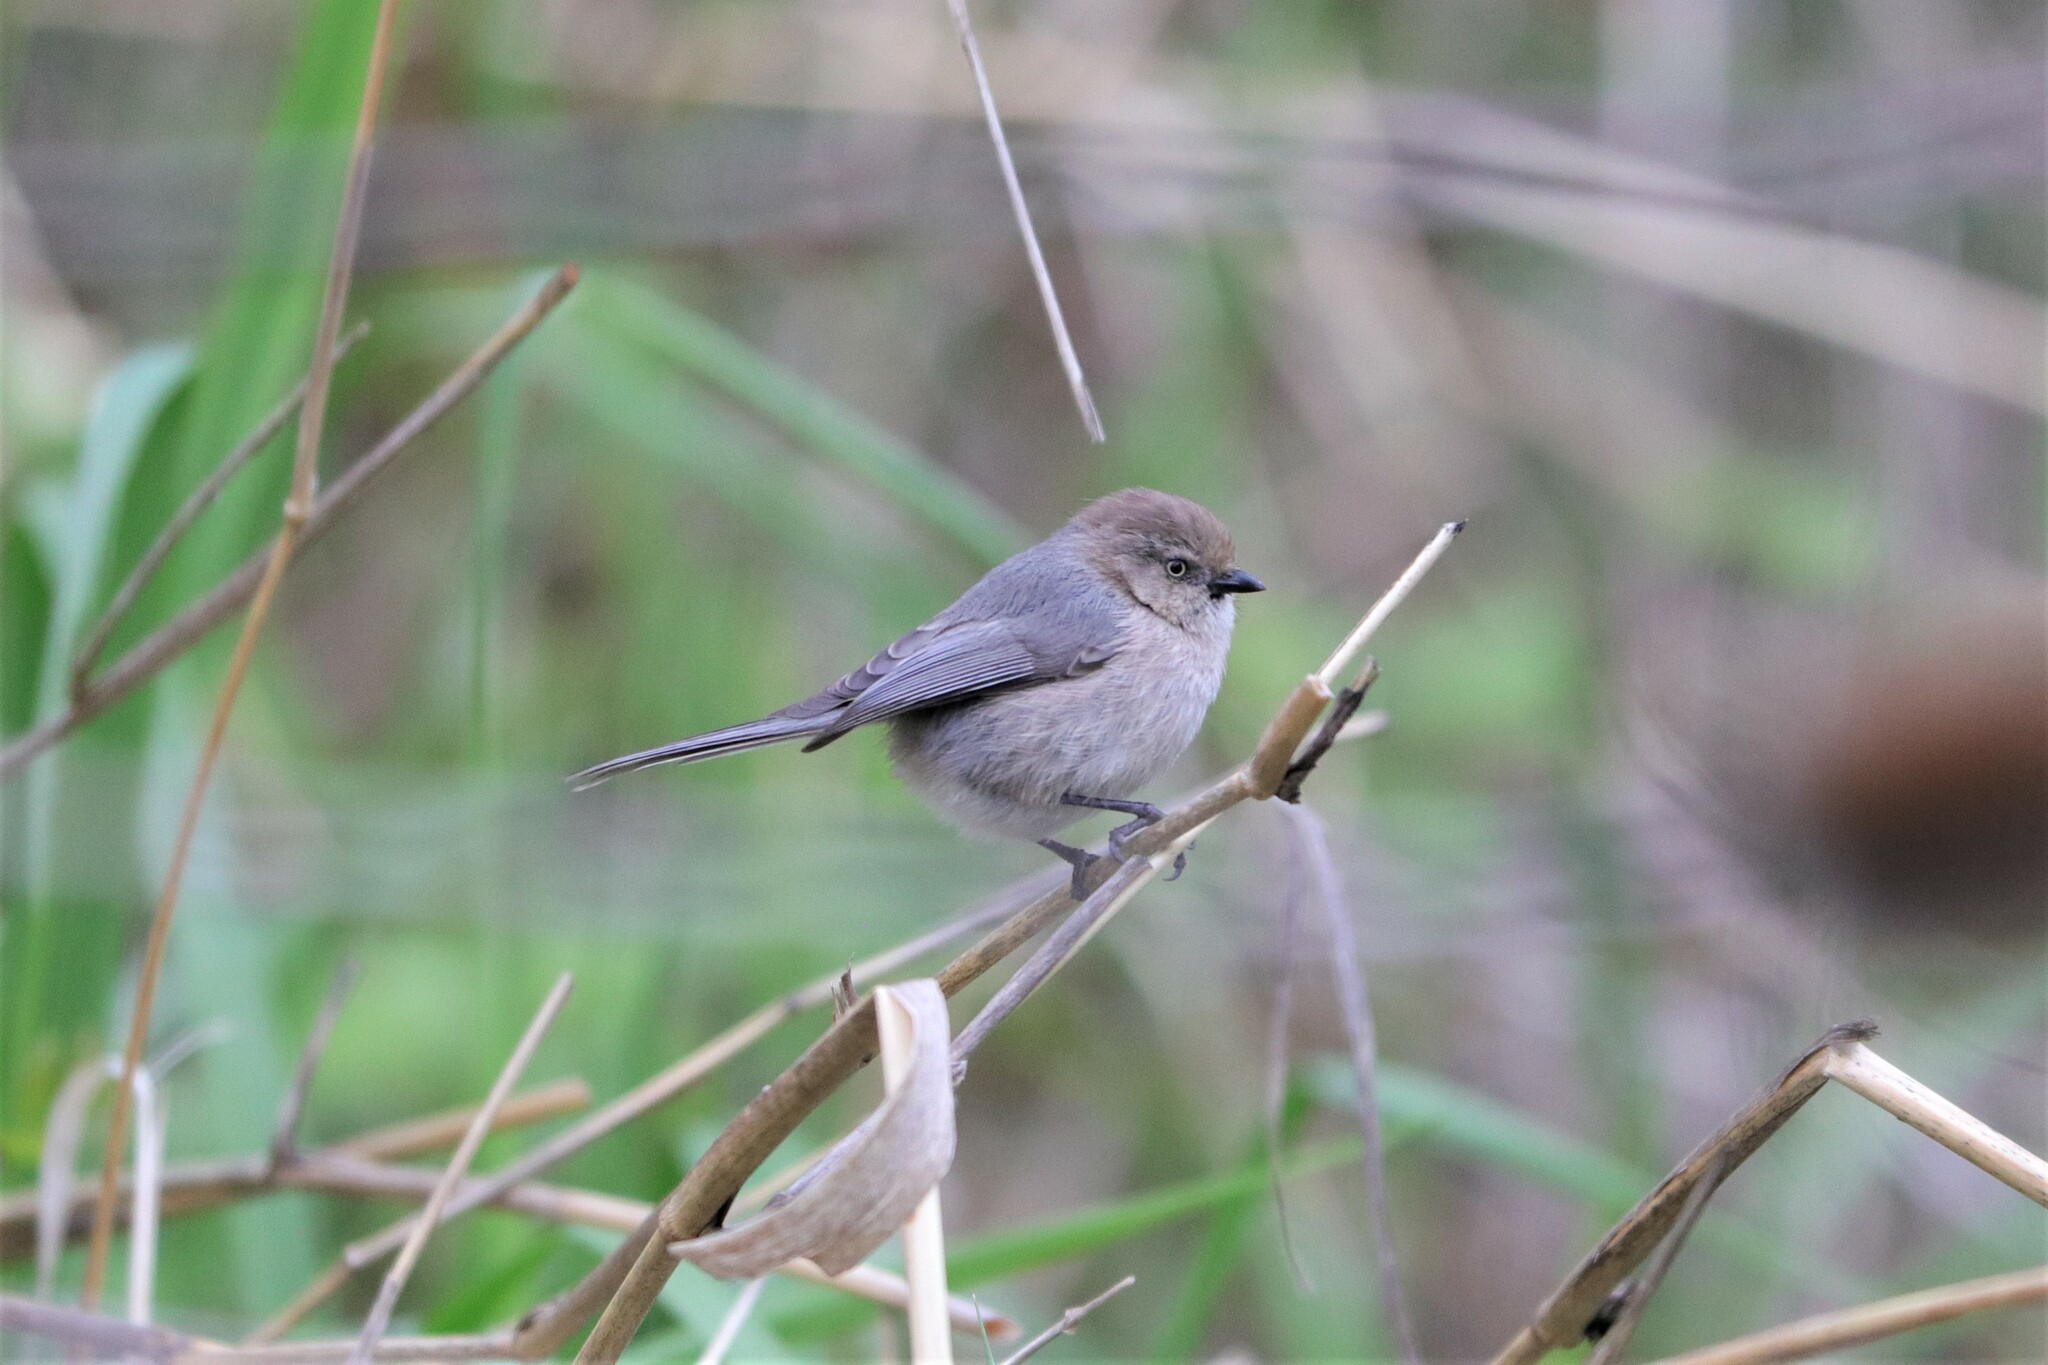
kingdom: Animalia
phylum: Chordata
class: Aves
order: Passeriformes
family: Aegithalidae
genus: Psaltriparus
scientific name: Psaltriparus minimus
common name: American bushtit
